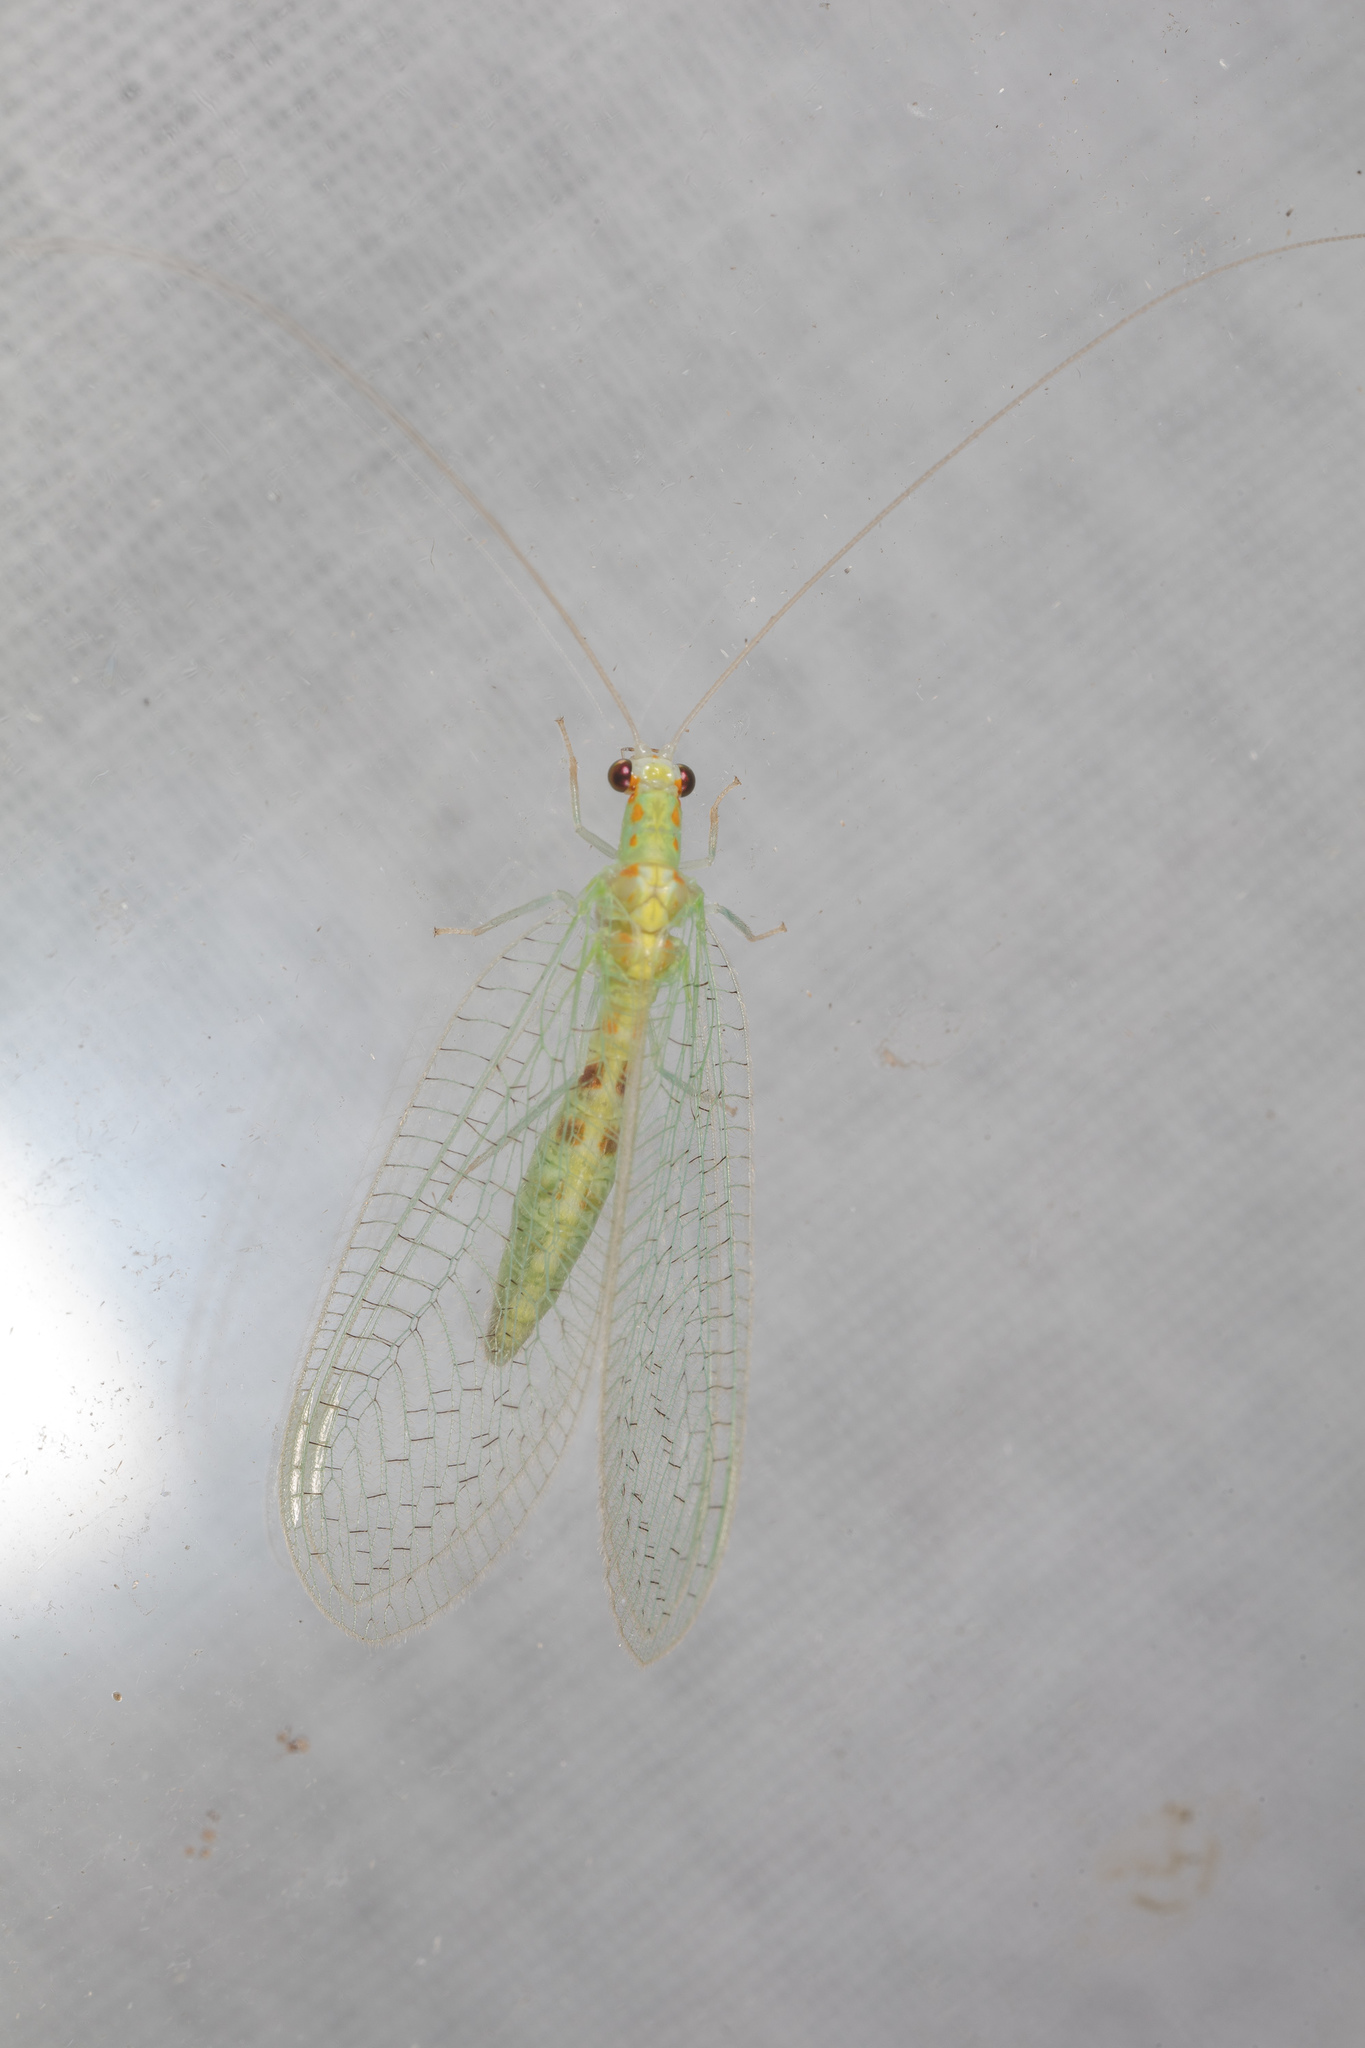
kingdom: Animalia
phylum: Arthropoda
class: Insecta
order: Neuroptera
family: Chrysopidae
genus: Chrysopa
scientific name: Chrysopa quadripunctata
